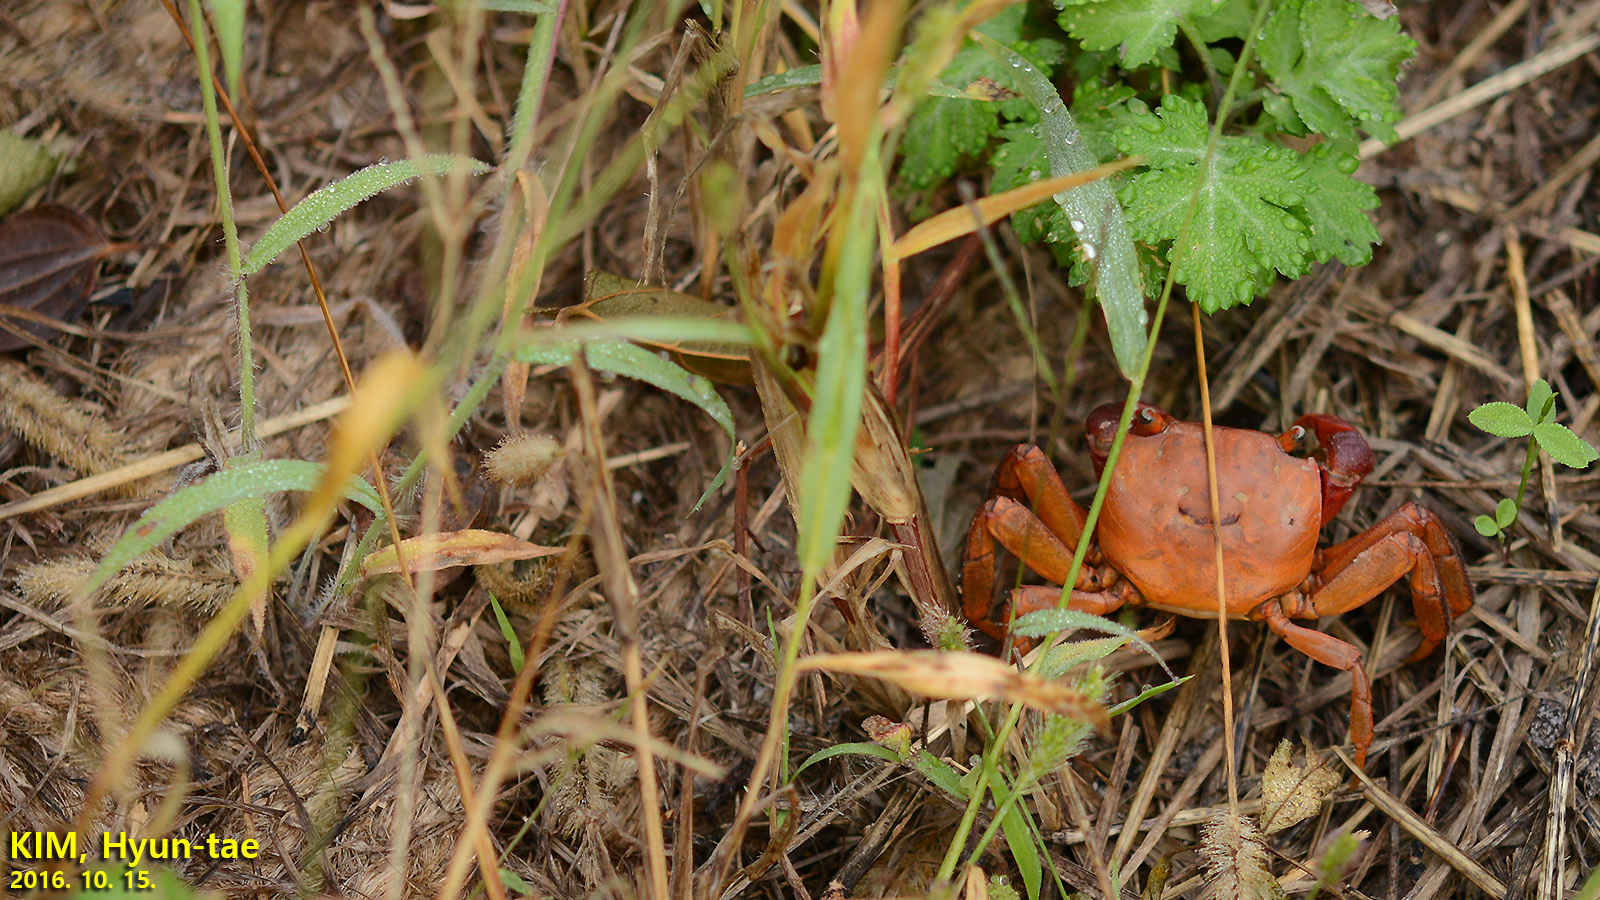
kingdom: Animalia
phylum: Arthropoda
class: Malacostraca
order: Decapoda
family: Sesarmidae
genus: Chiromantes
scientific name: Chiromantes haematocheir
